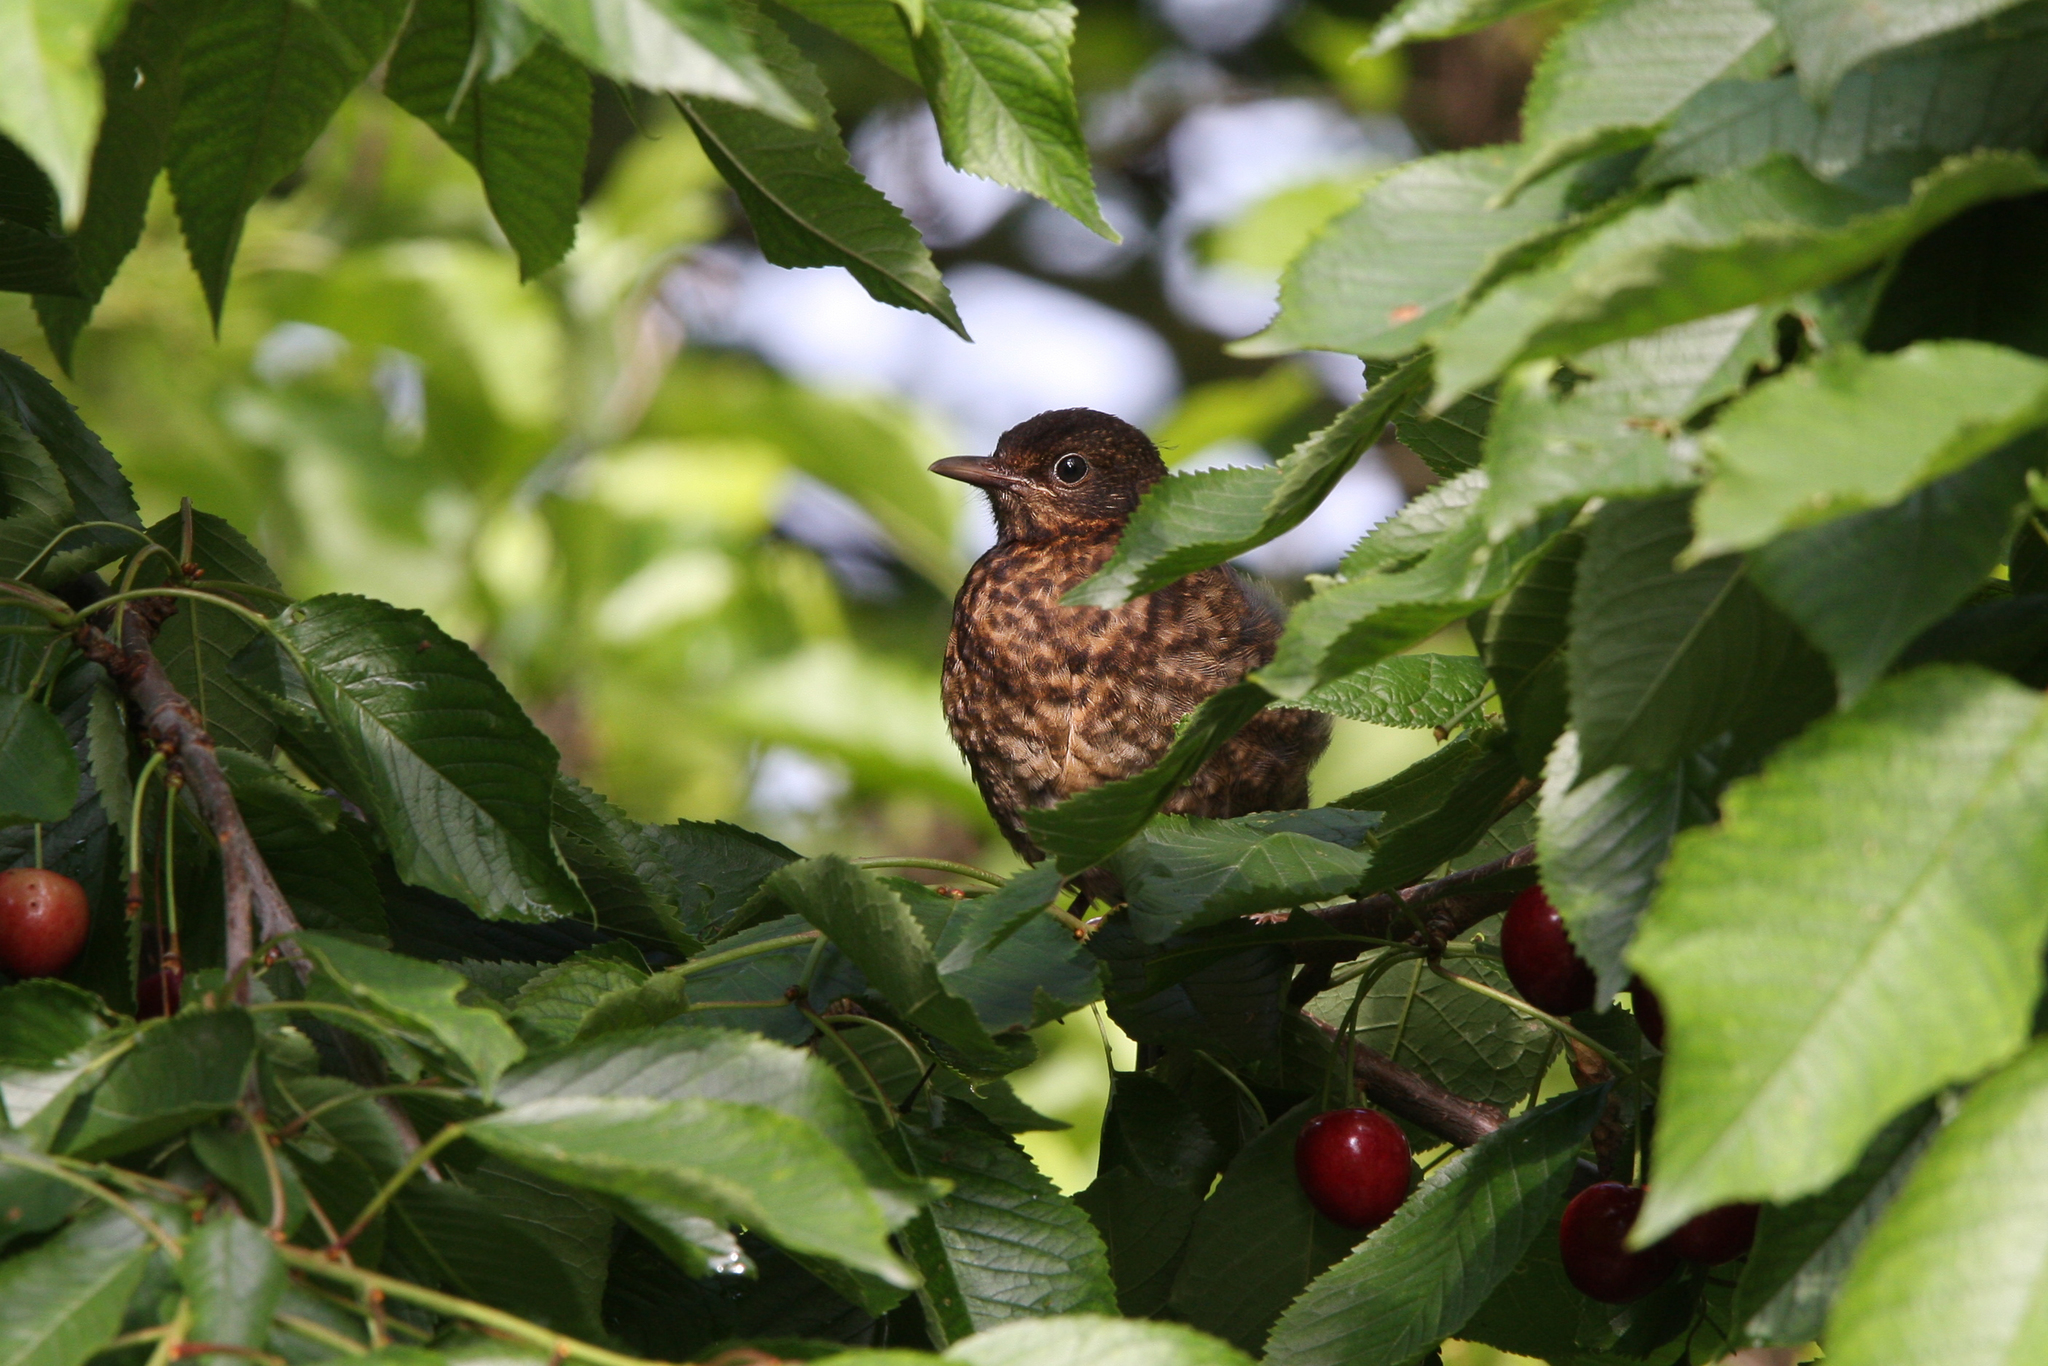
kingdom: Animalia
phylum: Chordata
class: Aves
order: Passeriformes
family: Turdidae
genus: Turdus
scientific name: Turdus merula
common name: Common blackbird
